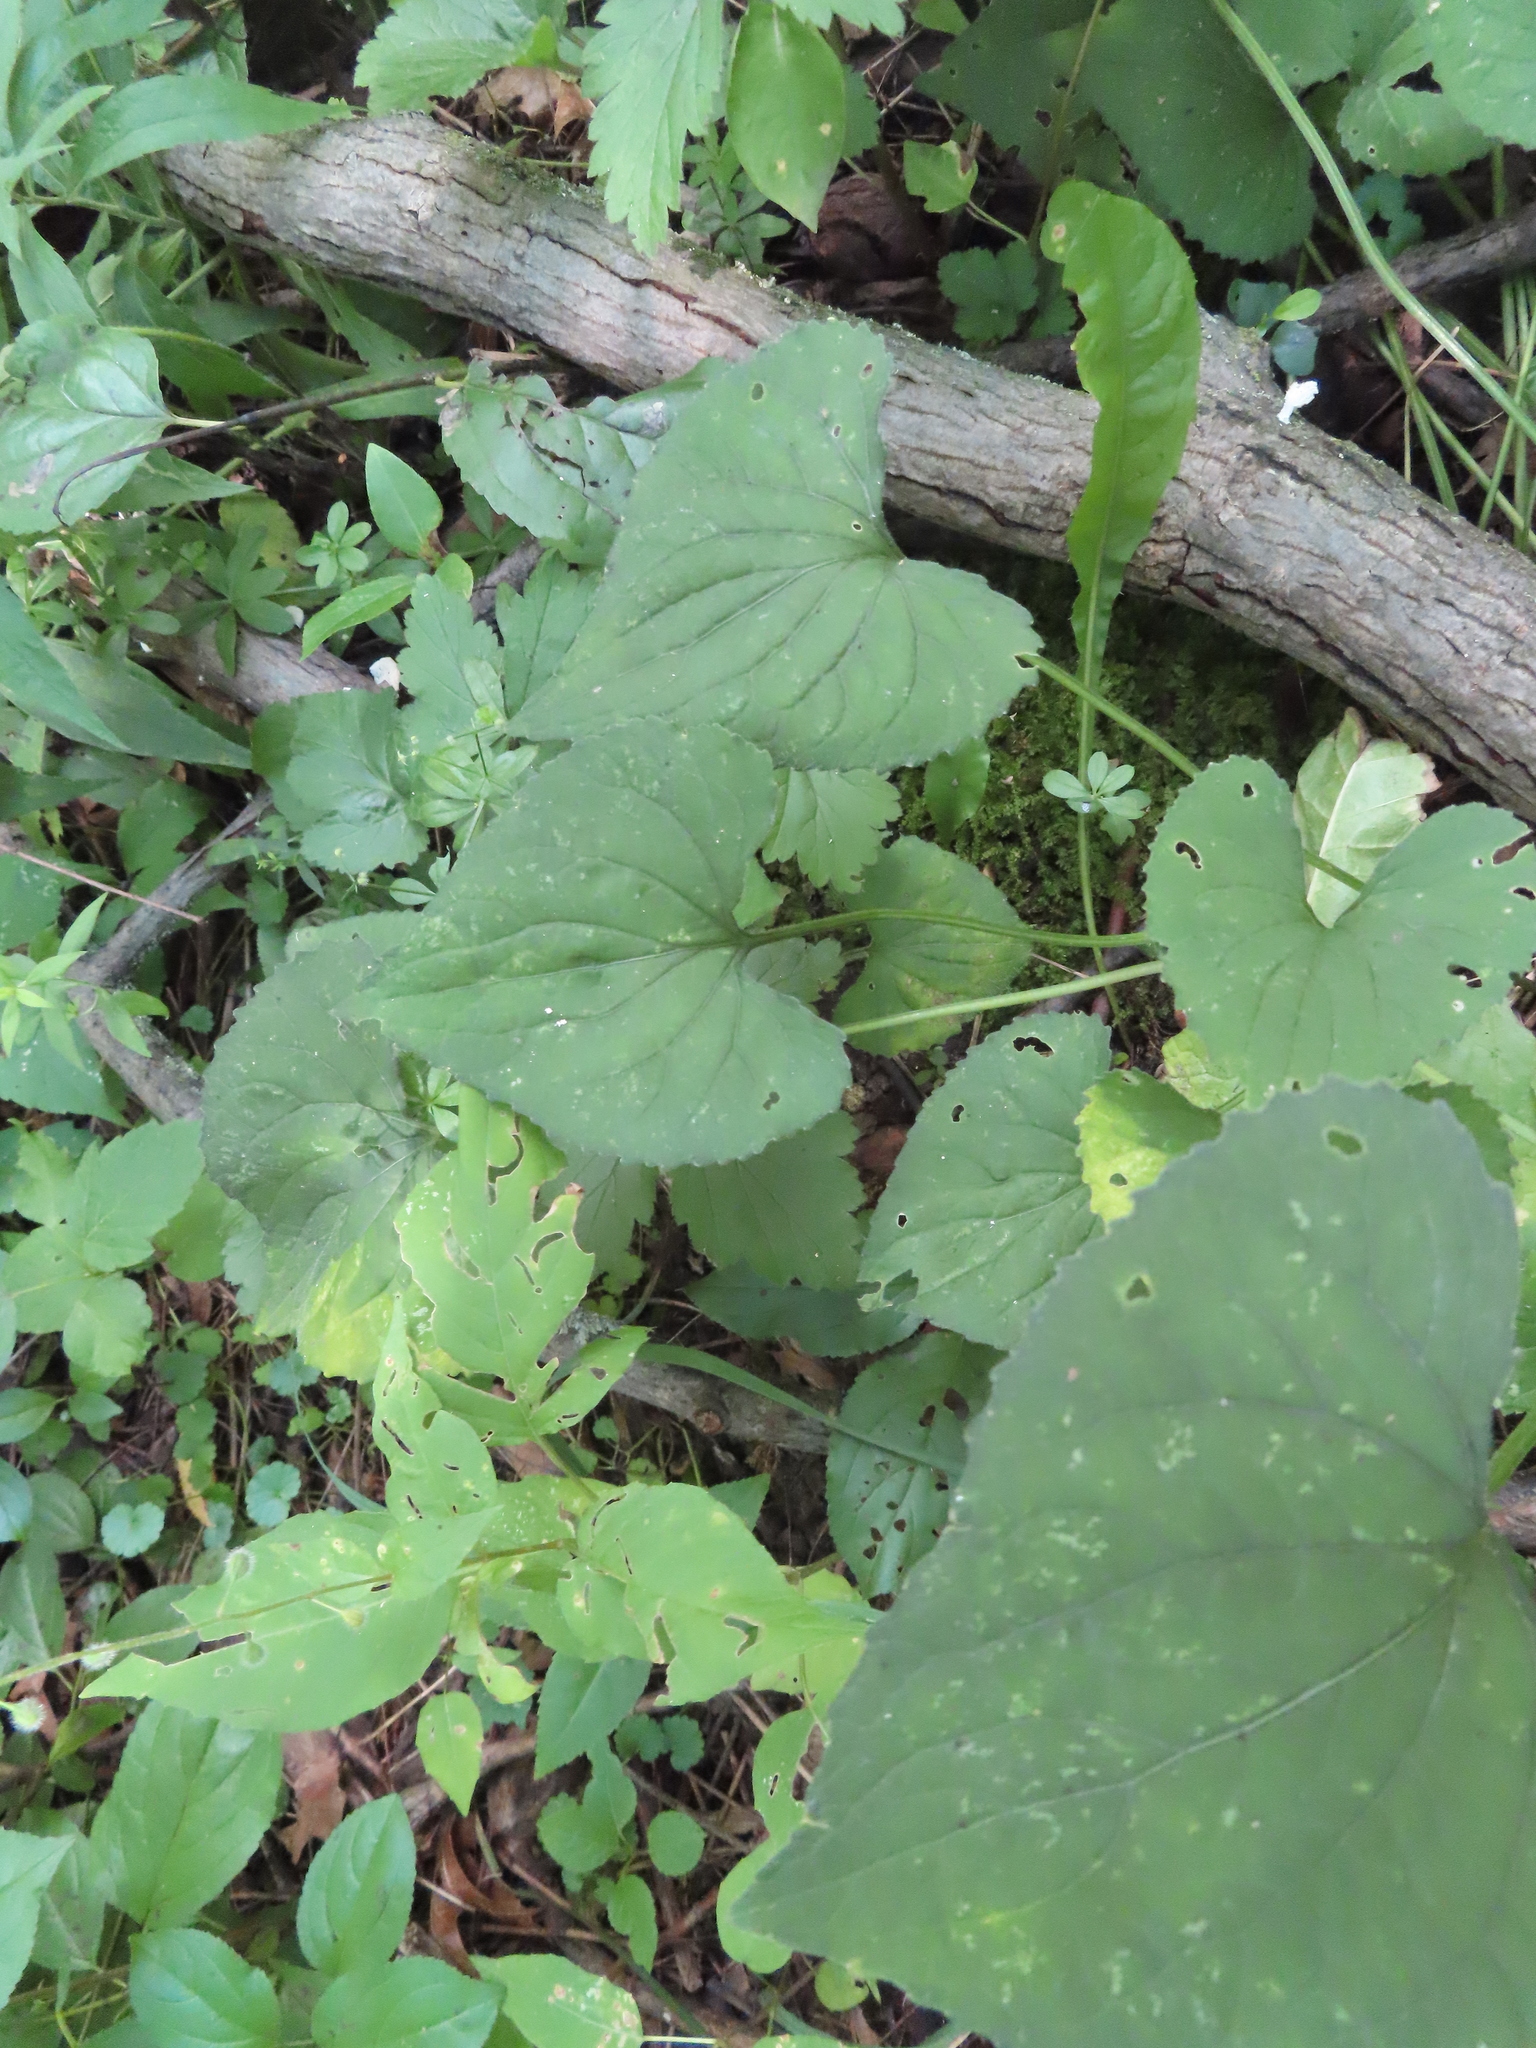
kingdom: Plantae
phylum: Tracheophyta
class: Magnoliopsida
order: Malpighiales
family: Violaceae
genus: Viola
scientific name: Viola
